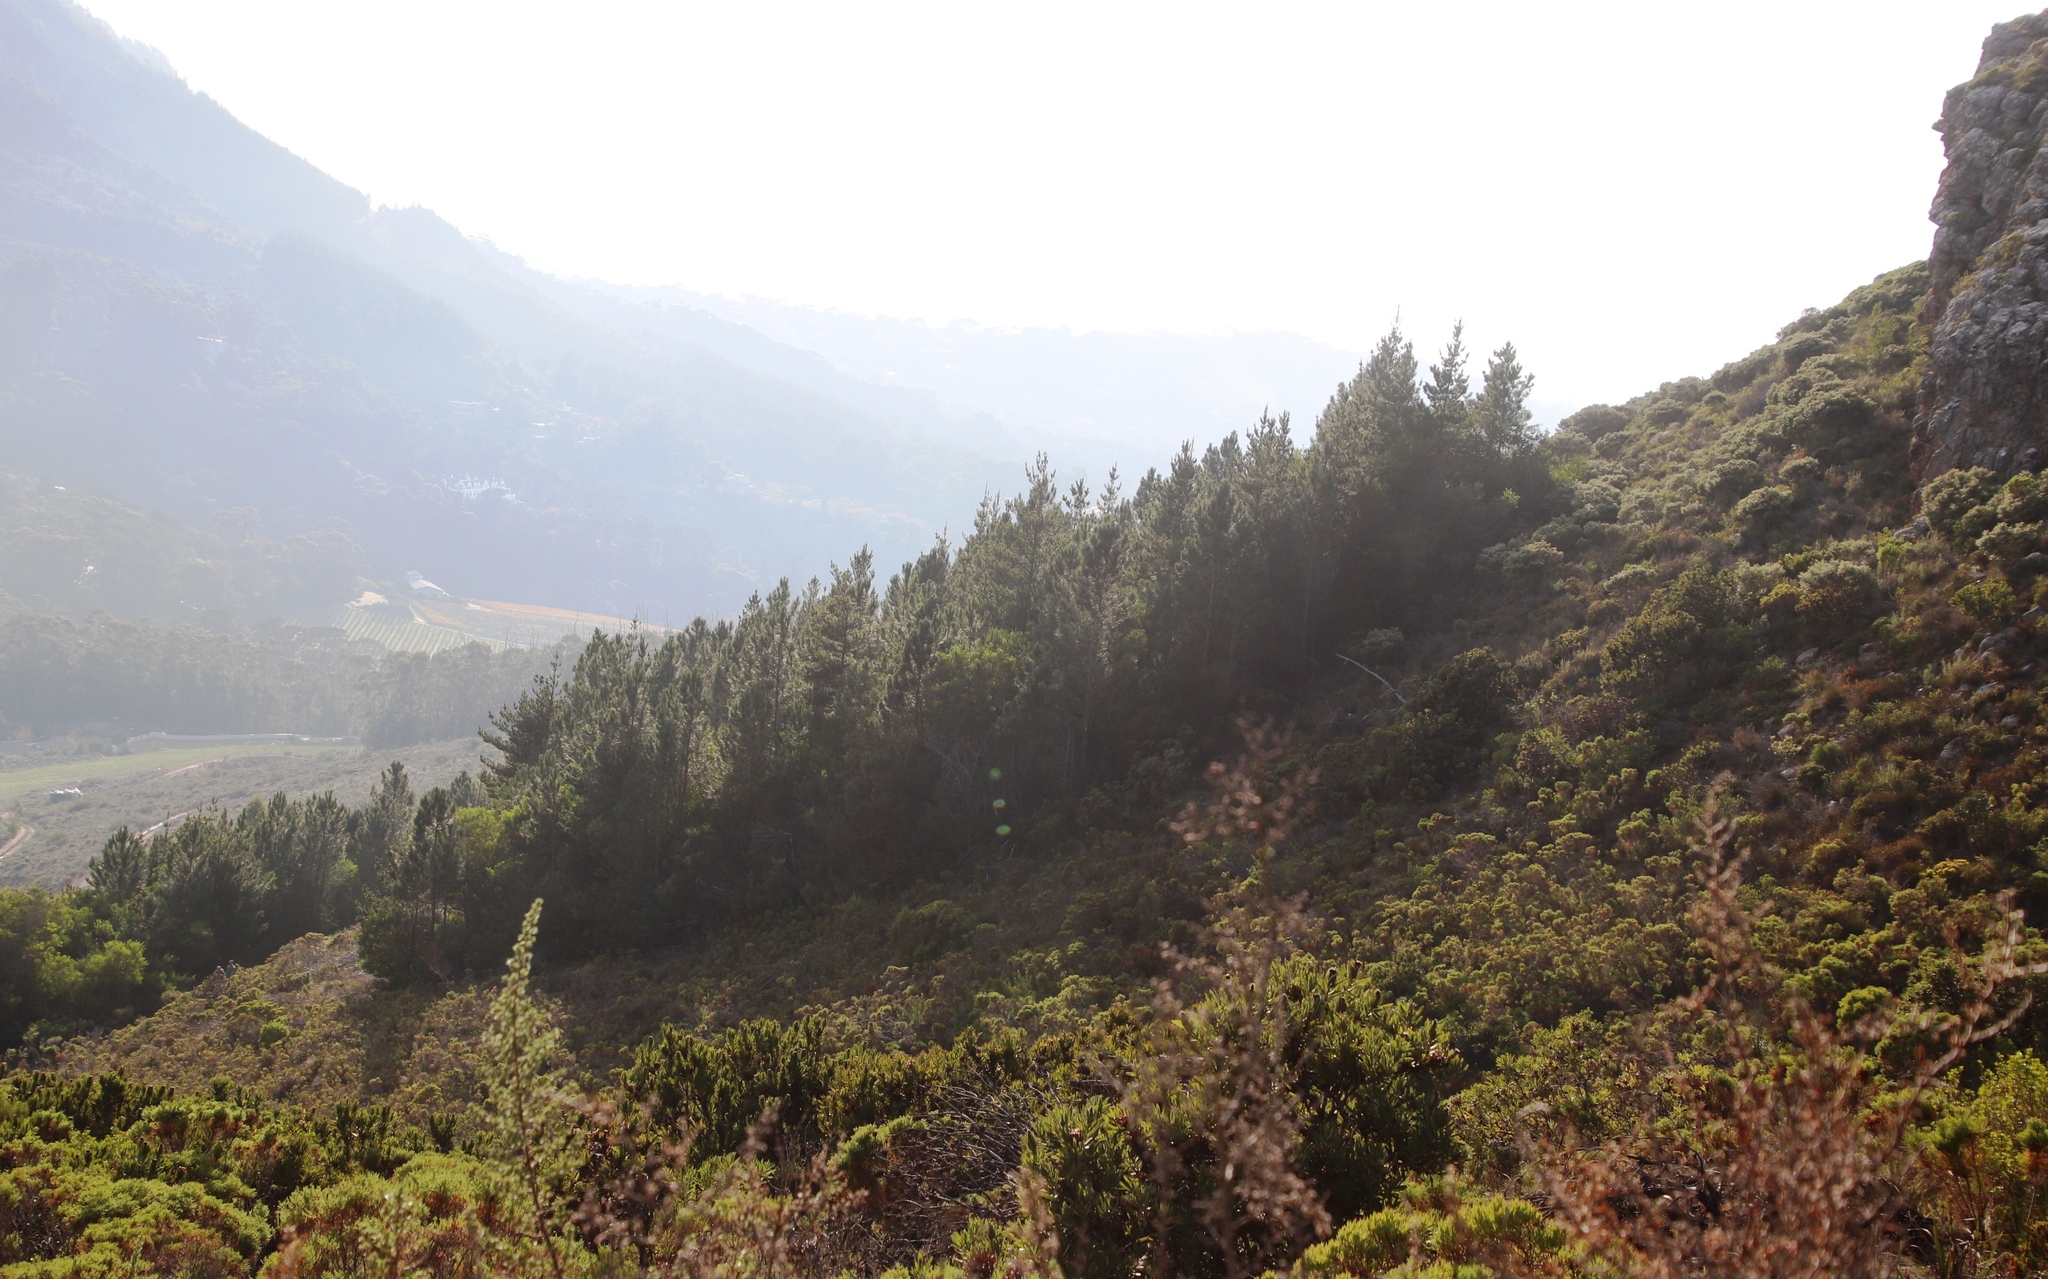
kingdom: Plantae
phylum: Tracheophyta
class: Pinopsida
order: Pinales
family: Pinaceae
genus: Pinus
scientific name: Pinus radiata
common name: Monterey pine
